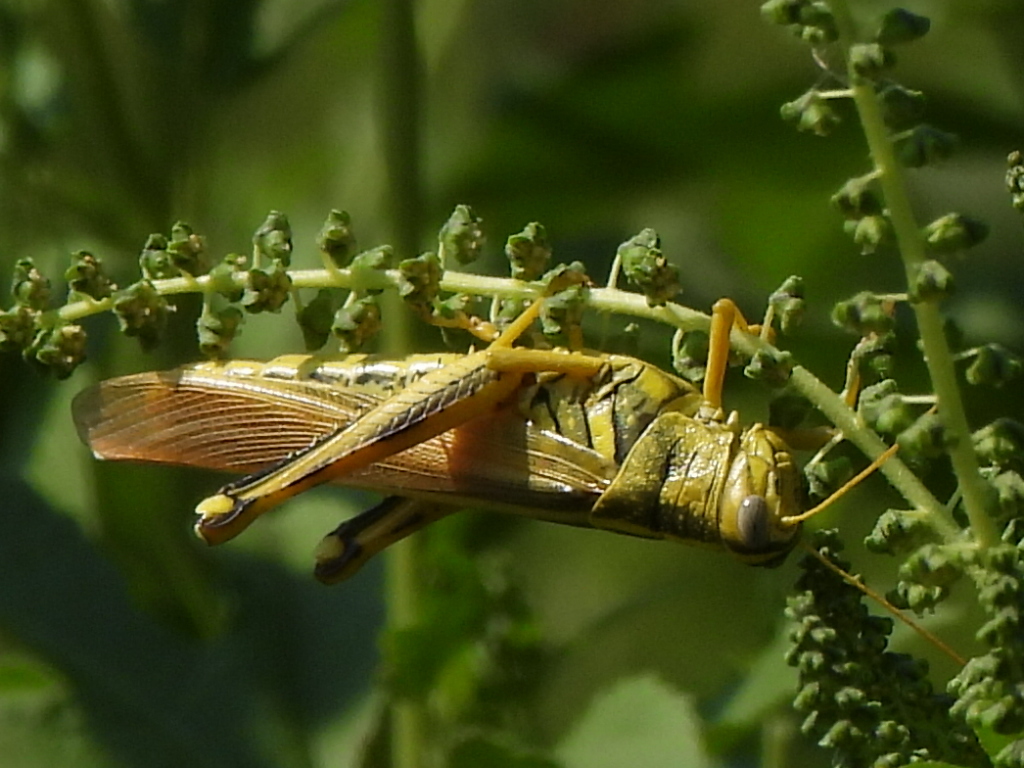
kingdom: Animalia
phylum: Arthropoda
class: Insecta
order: Orthoptera
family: Acrididae
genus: Schistocerca
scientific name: Schistocerca lineata
